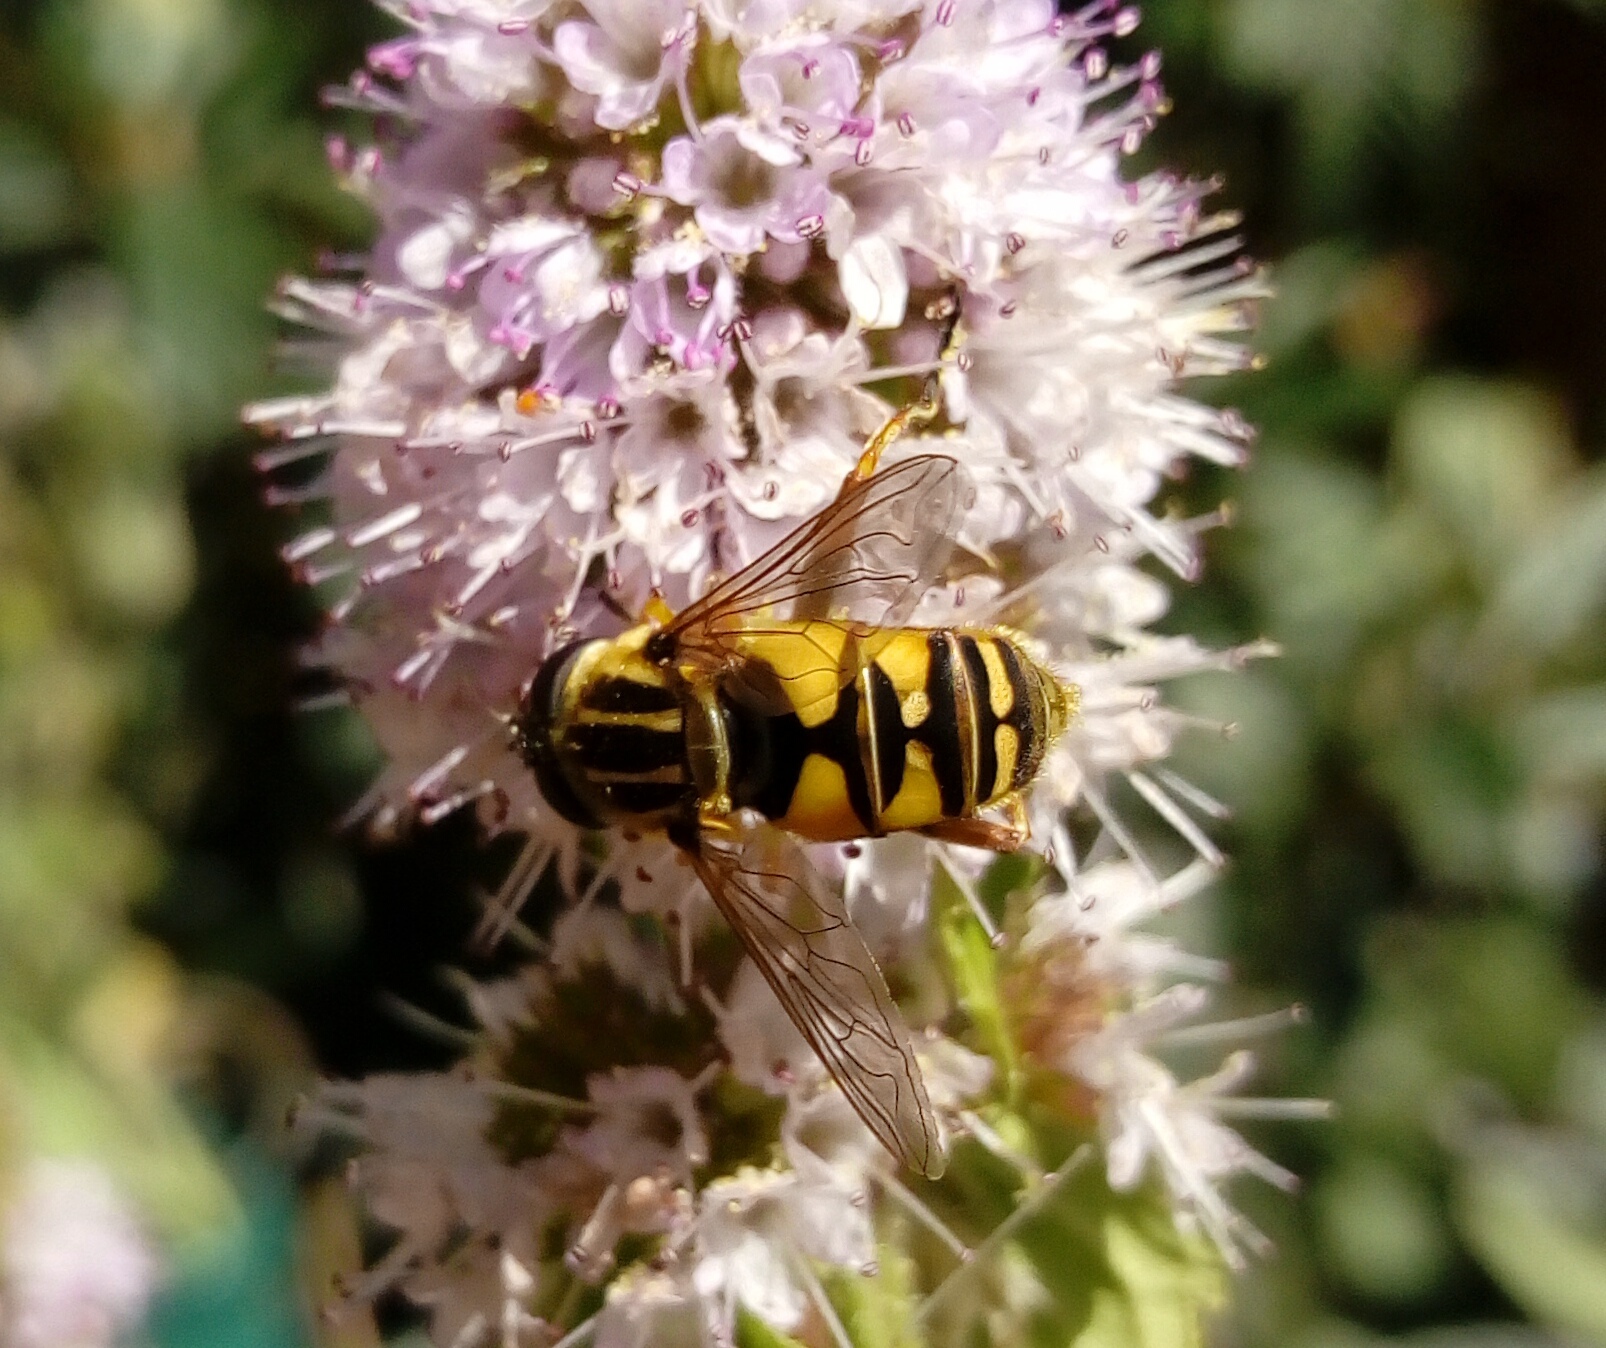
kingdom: Animalia
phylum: Arthropoda
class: Insecta
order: Diptera
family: Syrphidae
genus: Helophilus
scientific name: Helophilus pendulus
